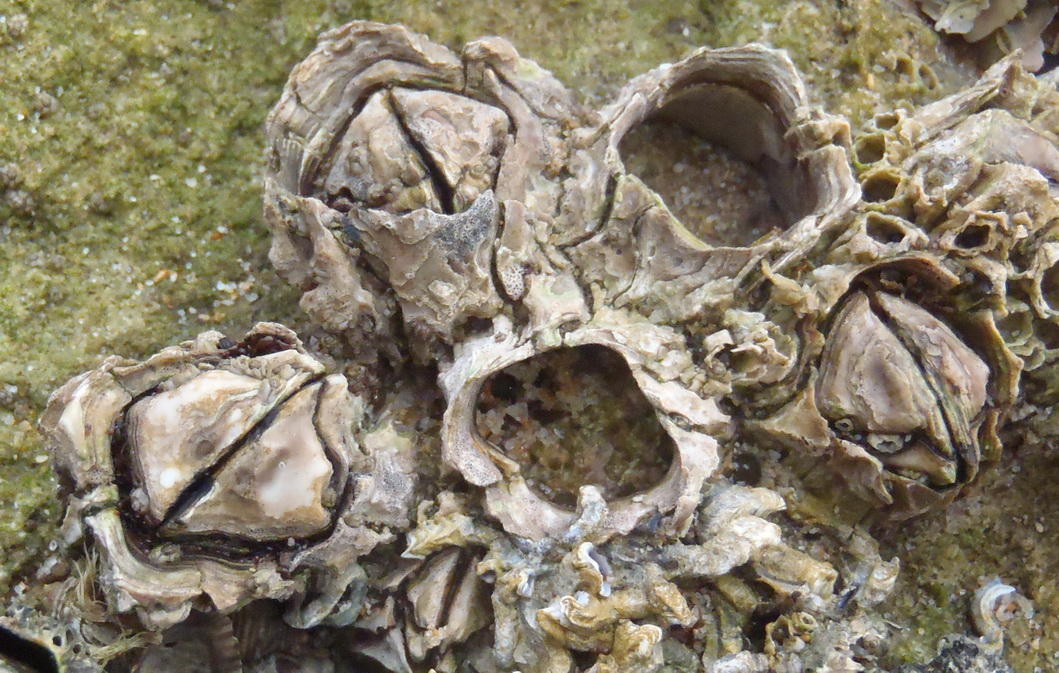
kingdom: Animalia
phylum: Arthropoda
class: Maxillopoda
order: Sessilia
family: Chthamalidae
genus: Octomeris
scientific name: Octomeris angulosa
